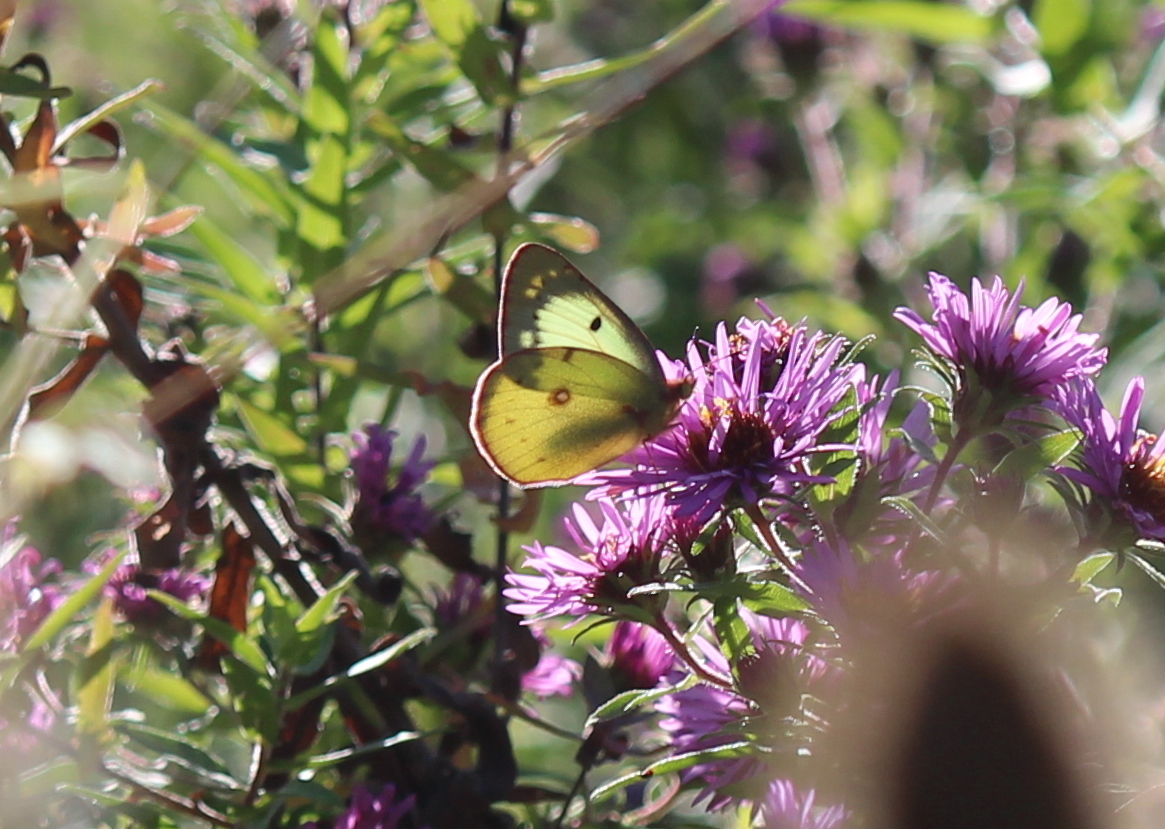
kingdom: Animalia
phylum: Arthropoda
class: Insecta
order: Lepidoptera
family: Pieridae
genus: Colias
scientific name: Colias philodice
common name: Clouded sulphur
